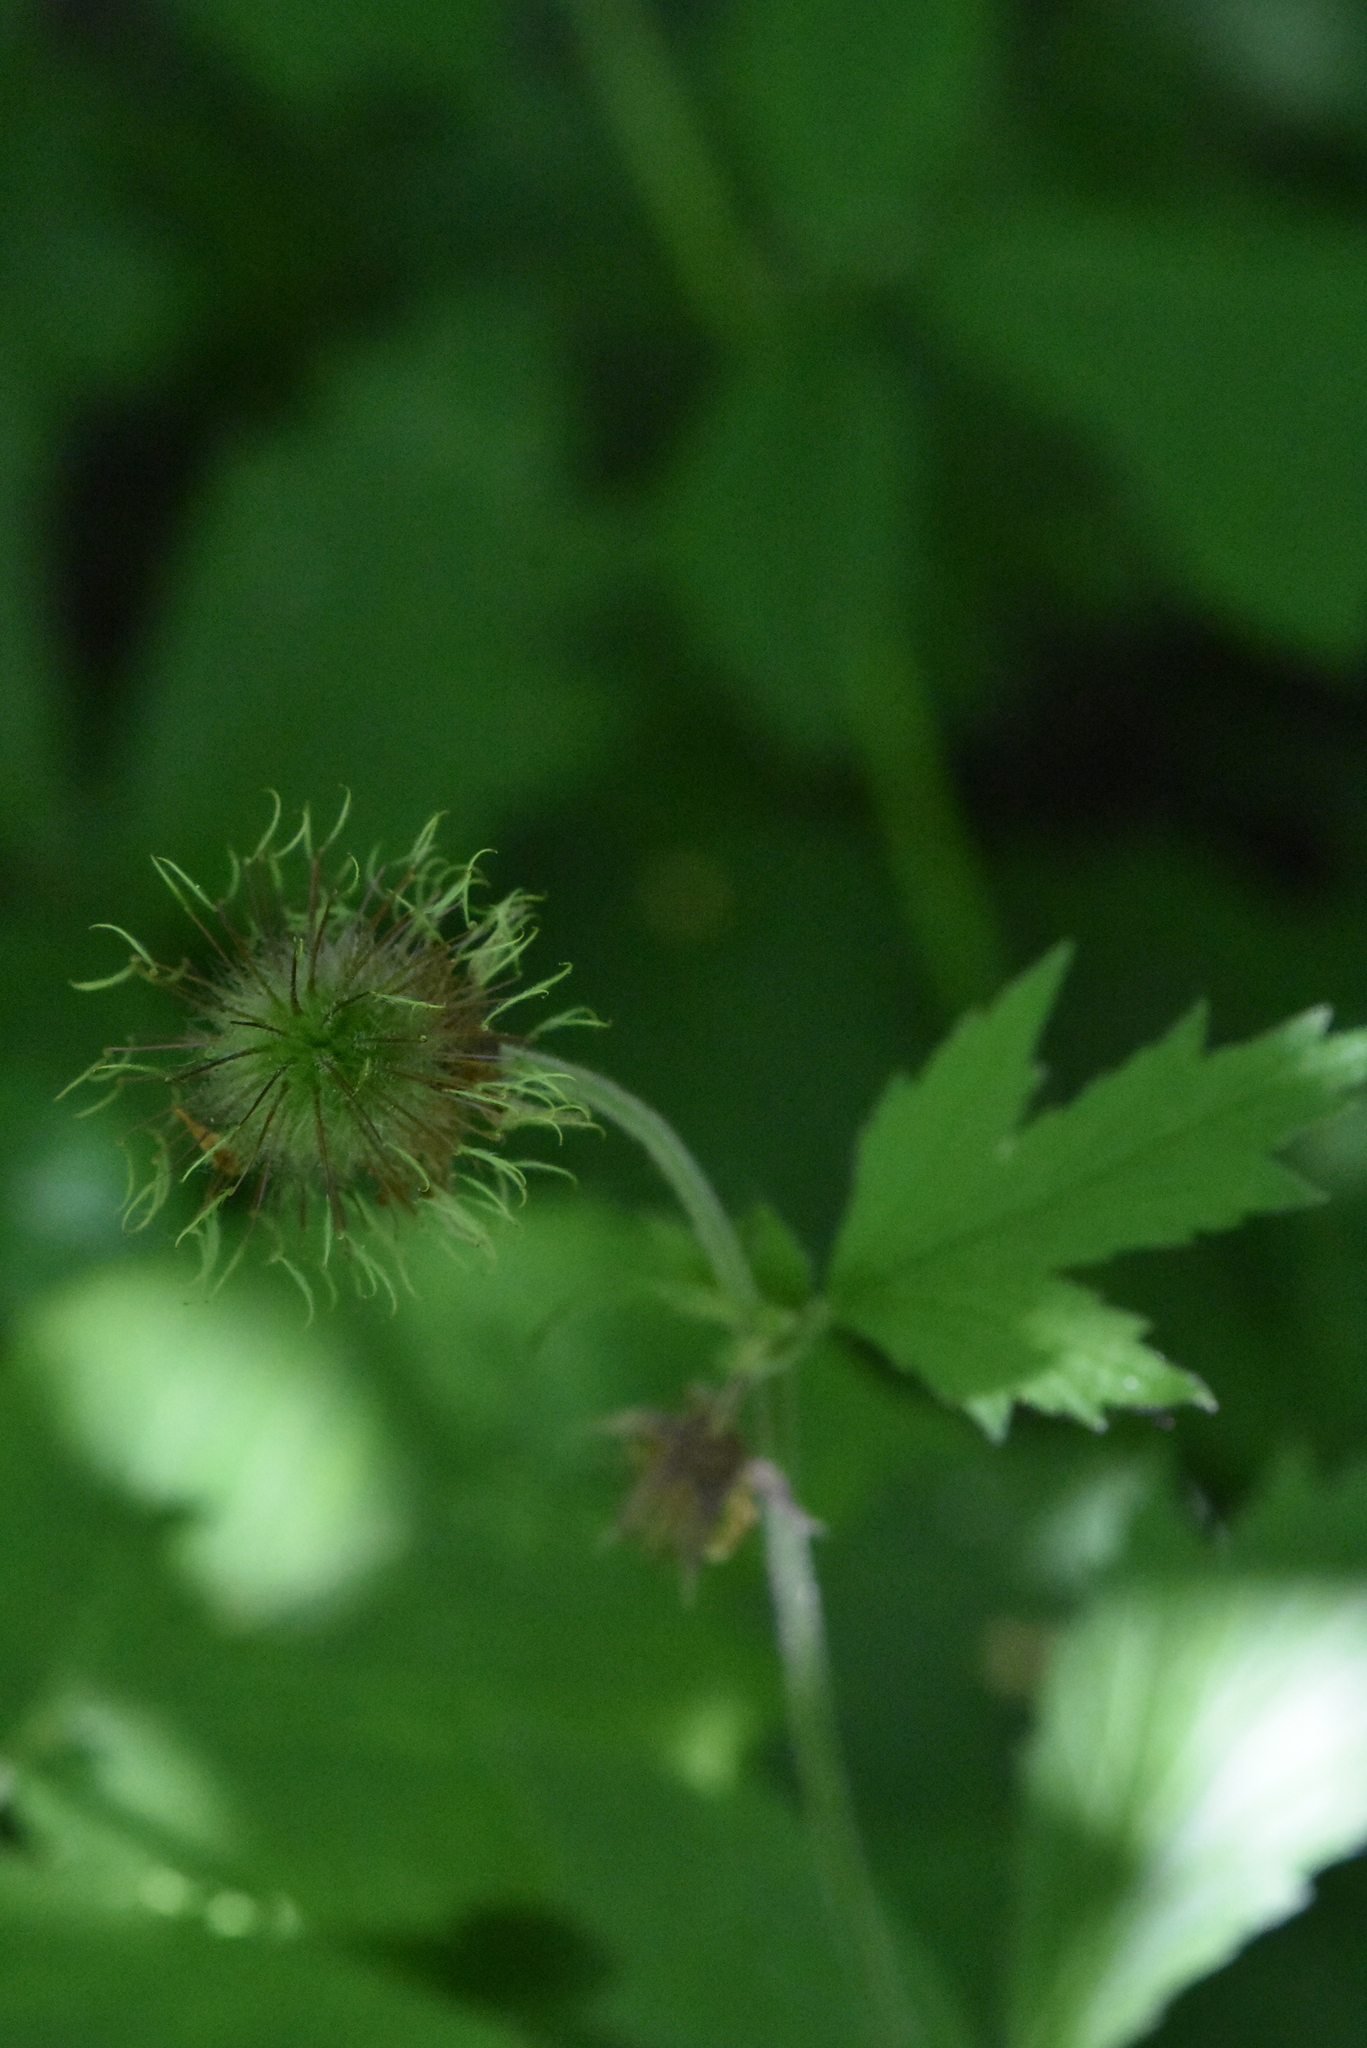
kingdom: Plantae
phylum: Tracheophyta
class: Magnoliopsida
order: Rosales
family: Rosaceae
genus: Geum
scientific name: Geum rivale
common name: Water avens
